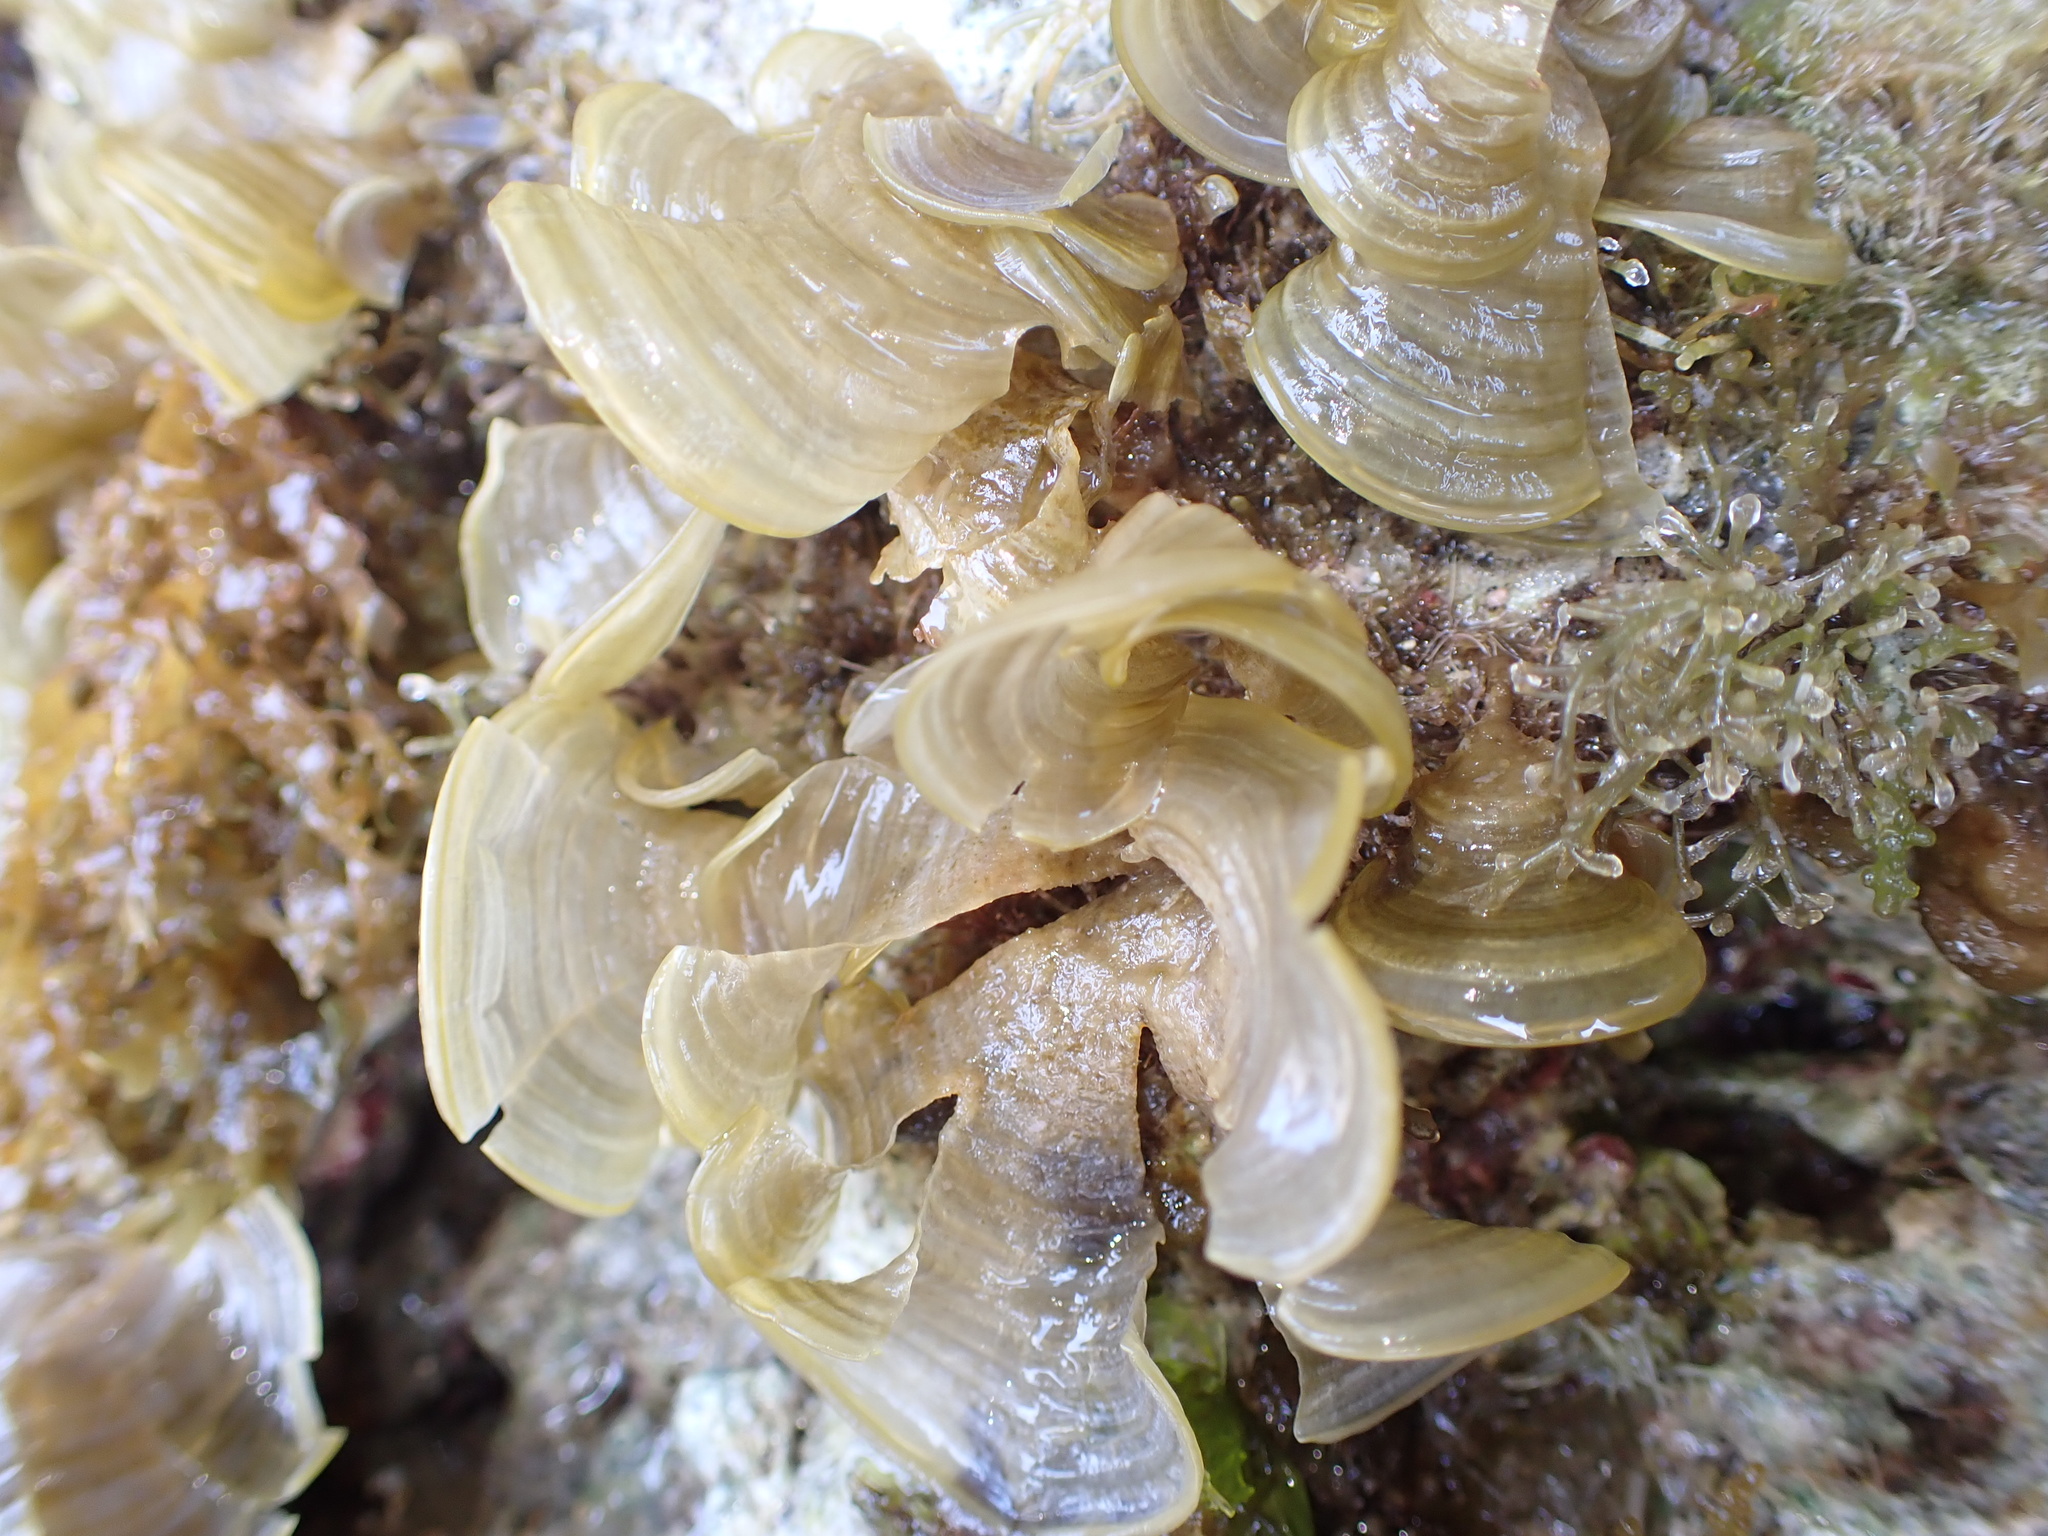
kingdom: Chromista
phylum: Ochrophyta
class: Phaeophyceae
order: Dictyotales
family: Dictyotaceae
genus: Padina
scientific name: Padina sanctae-crucis
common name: White scroll algae
